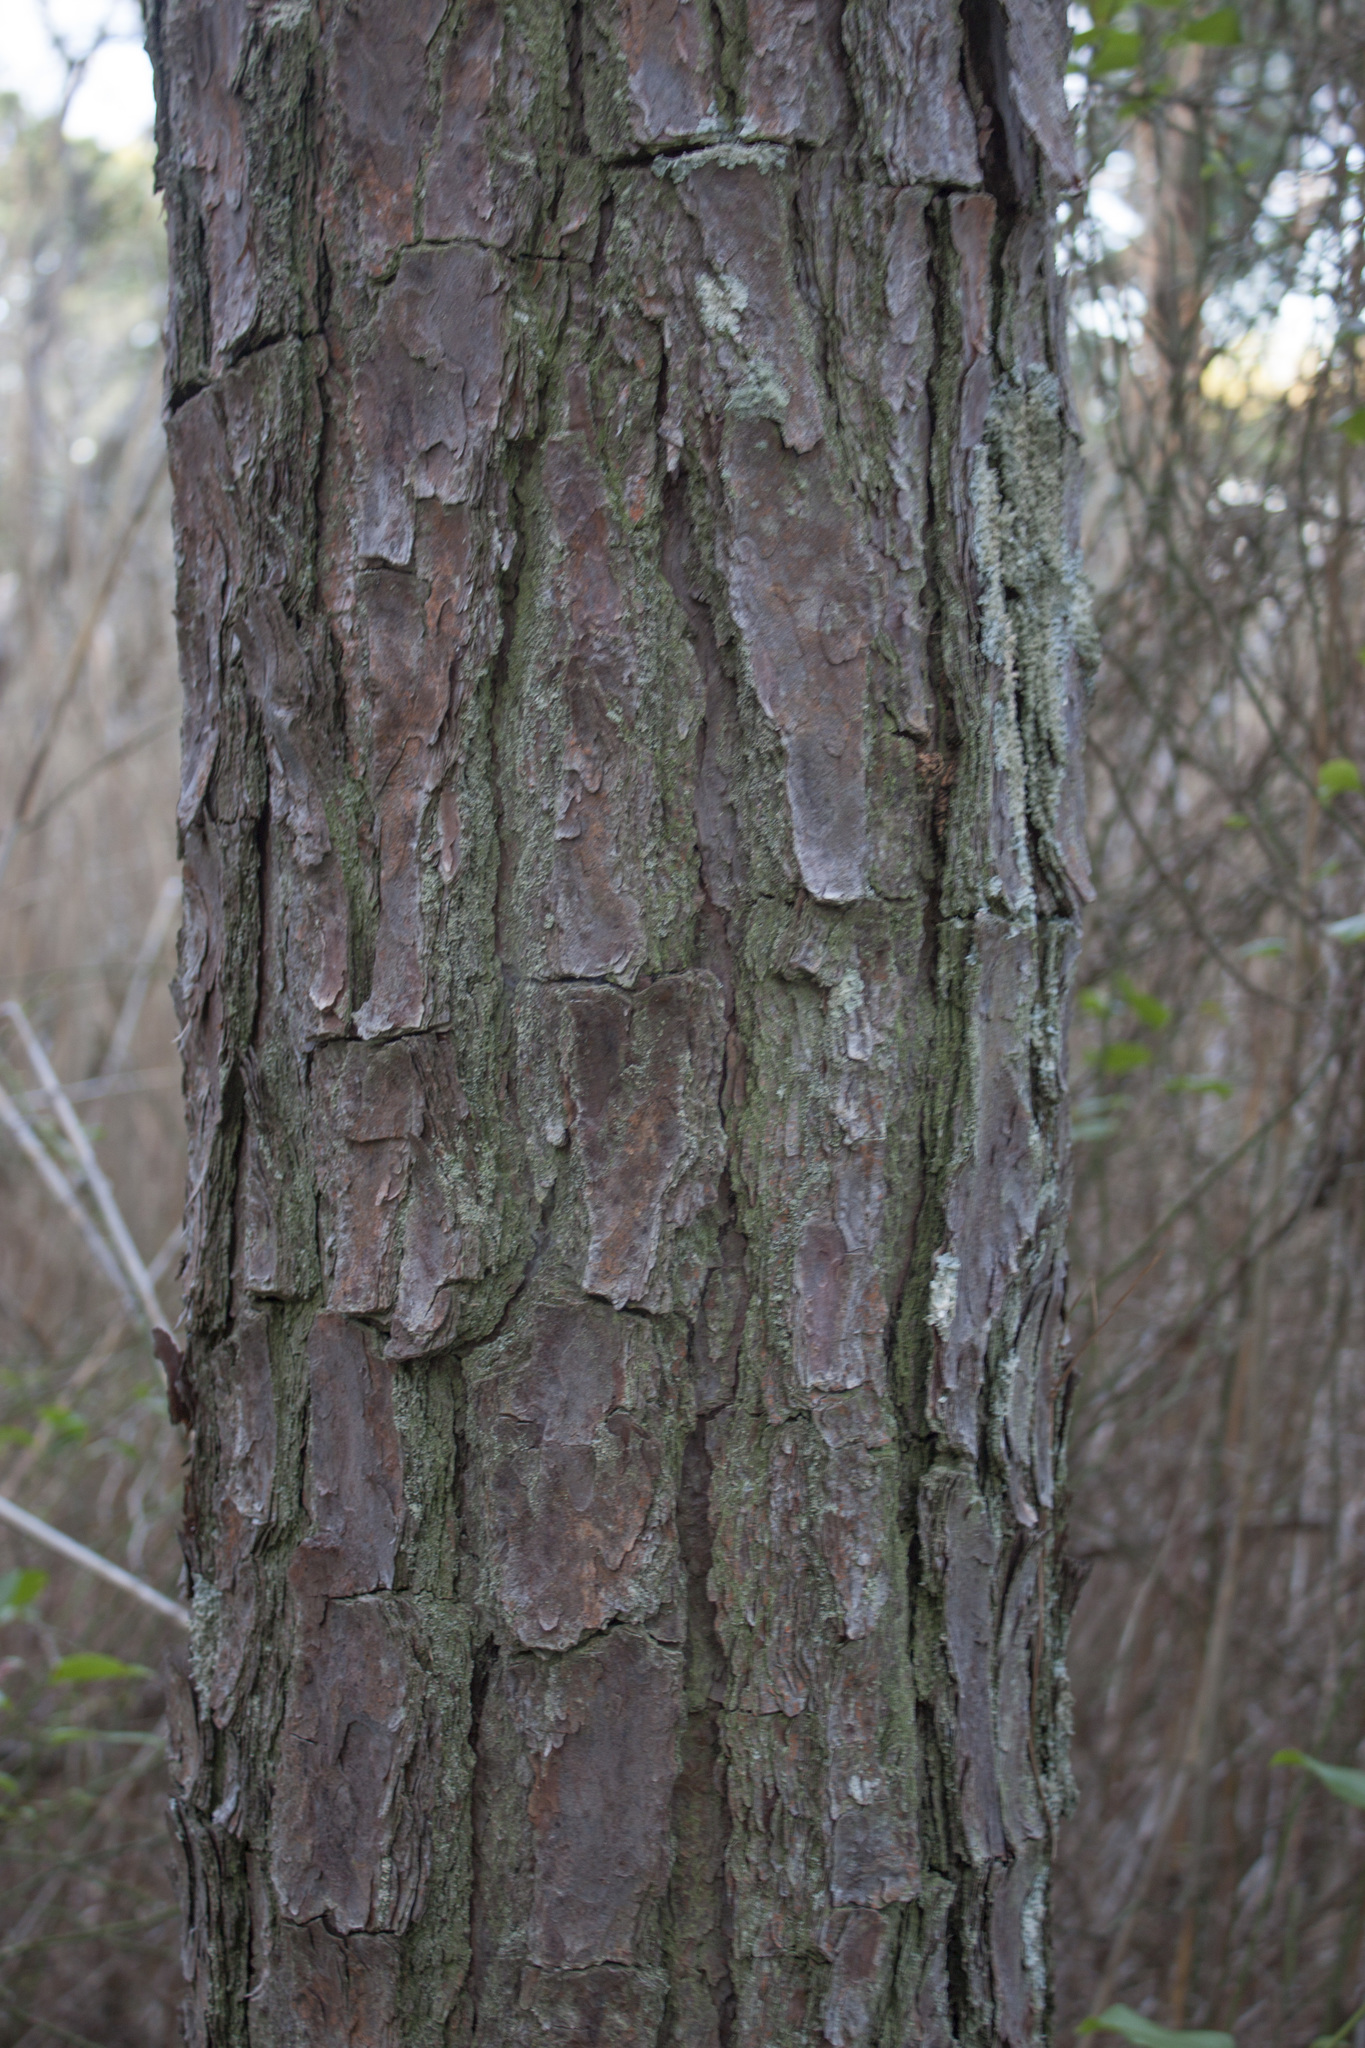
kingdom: Plantae
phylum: Tracheophyta
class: Pinopsida
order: Pinales
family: Pinaceae
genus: Pinus
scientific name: Pinus taeda
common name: Loblolly pine
